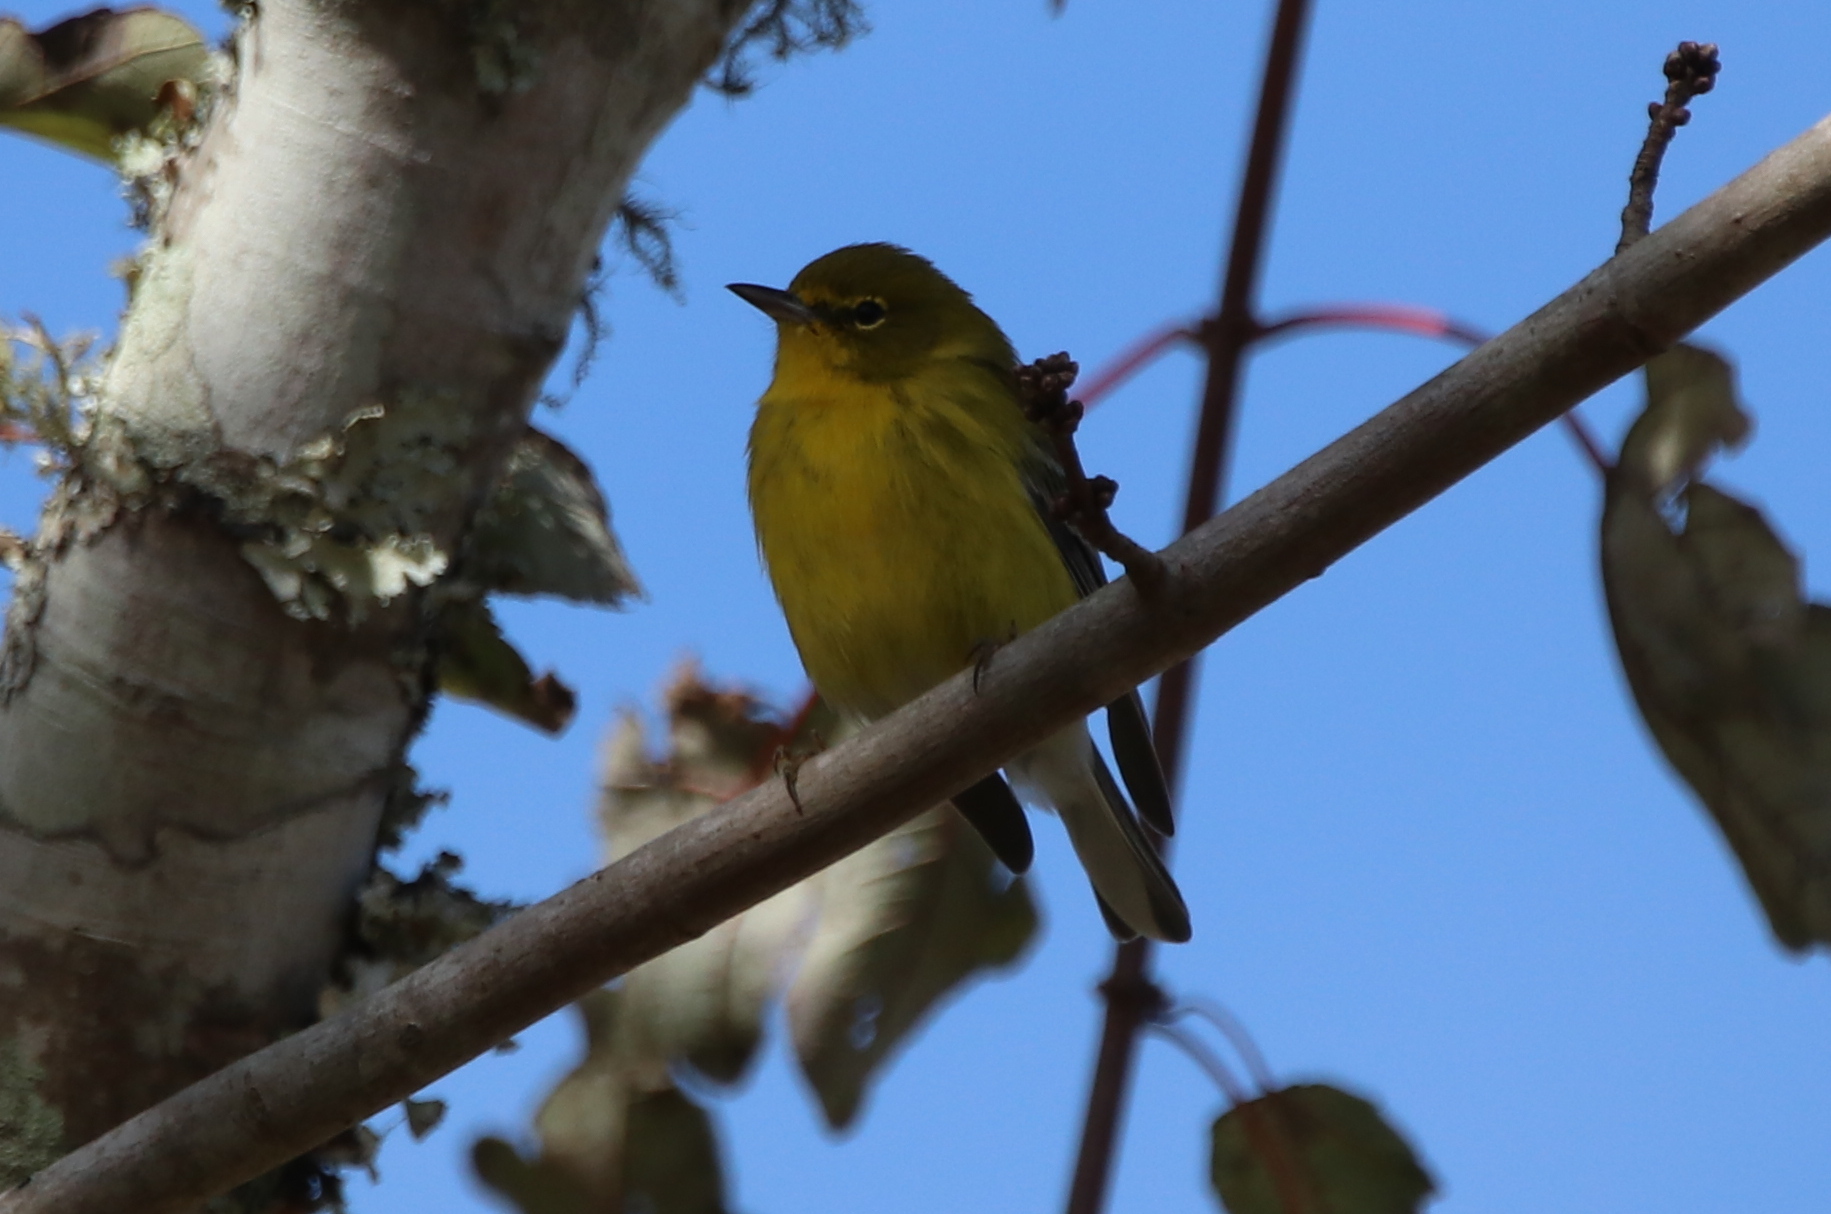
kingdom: Animalia
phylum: Chordata
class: Aves
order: Passeriformes
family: Parulidae
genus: Setophaga
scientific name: Setophaga pinus
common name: Pine warbler
